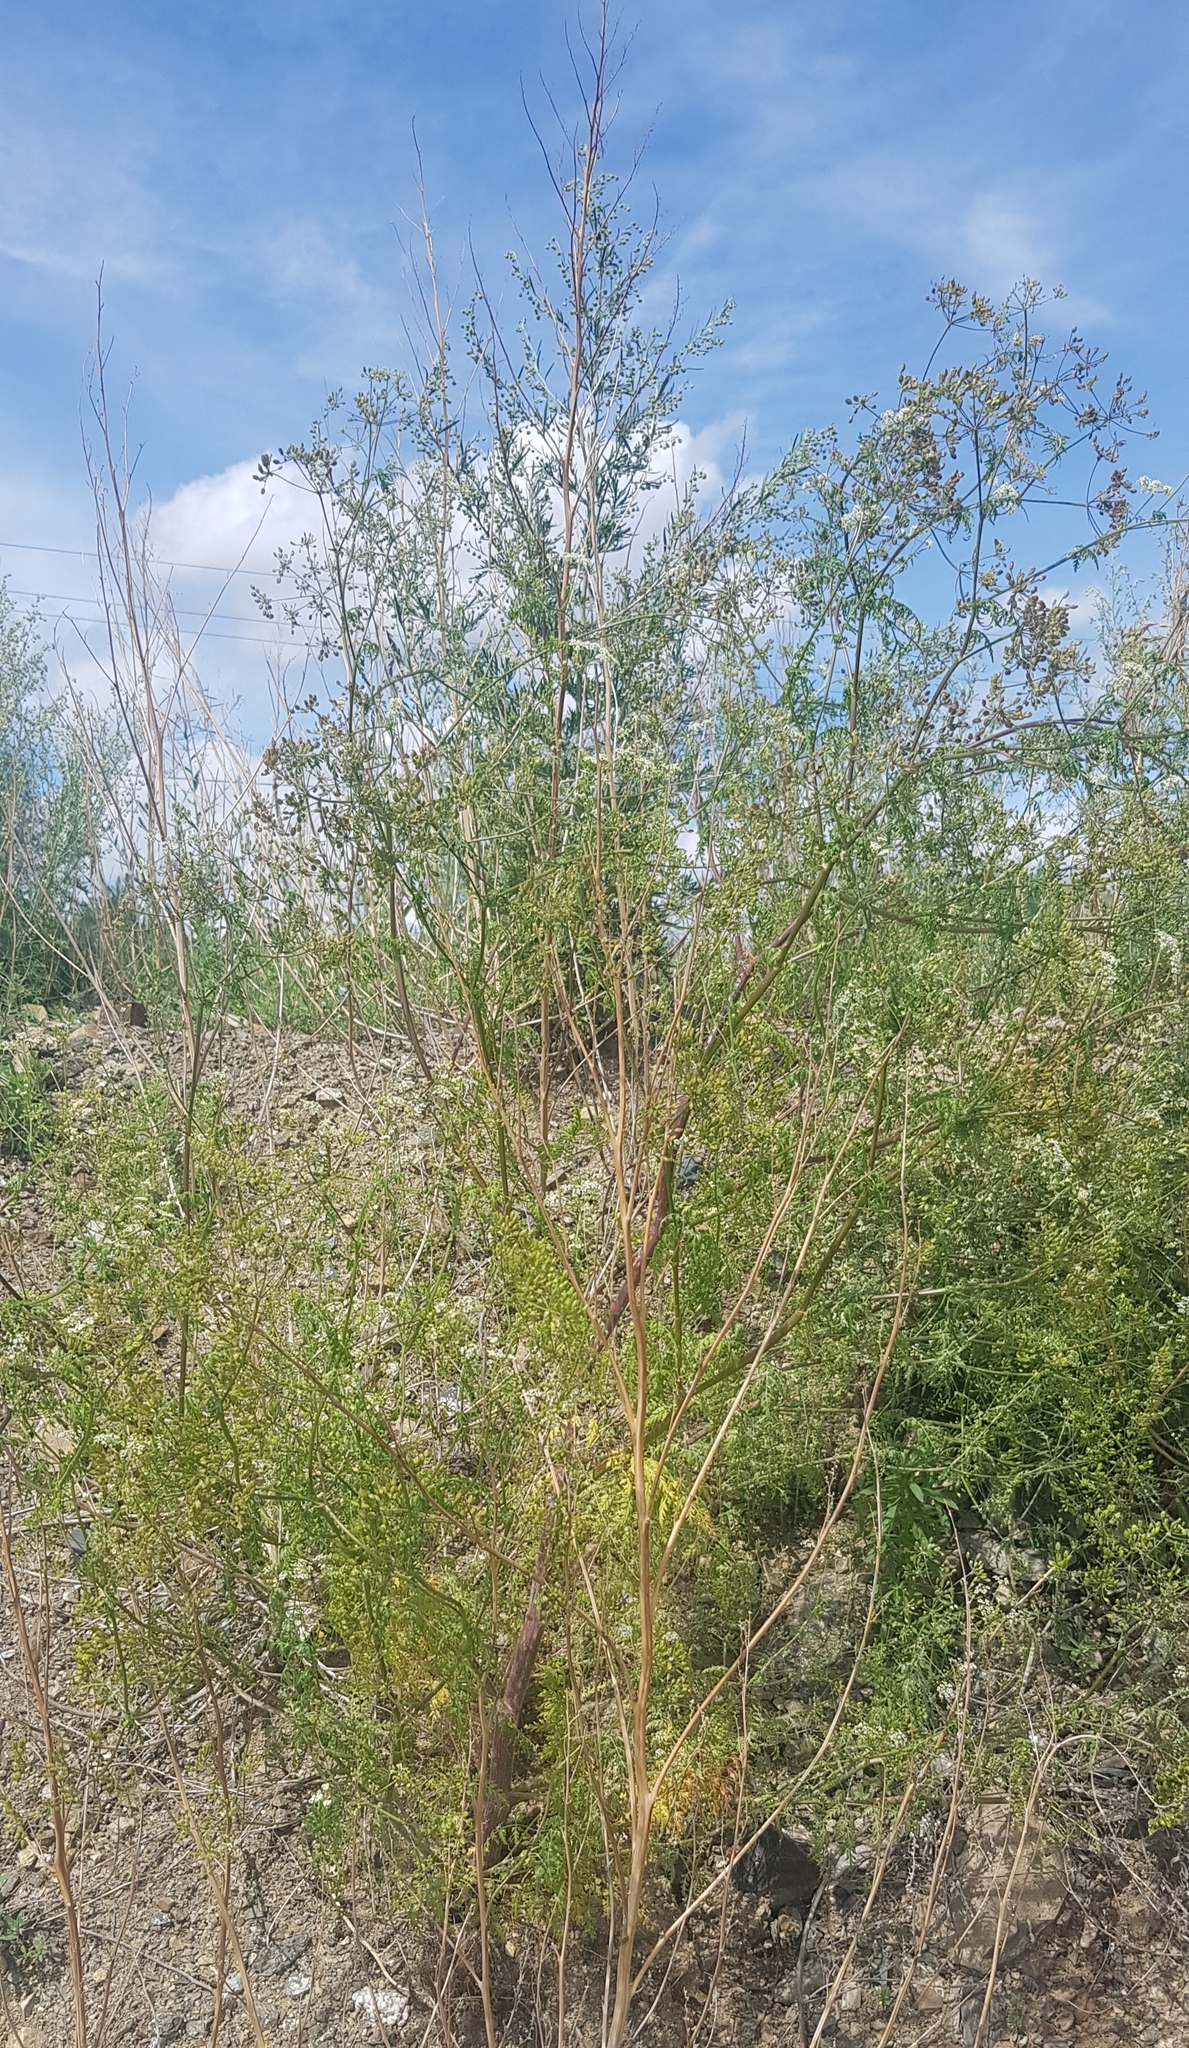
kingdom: Plantae
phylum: Tracheophyta
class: Magnoliopsida
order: Apiales
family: Apiaceae
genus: Sphallerocarpus
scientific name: Sphallerocarpus gracilis
